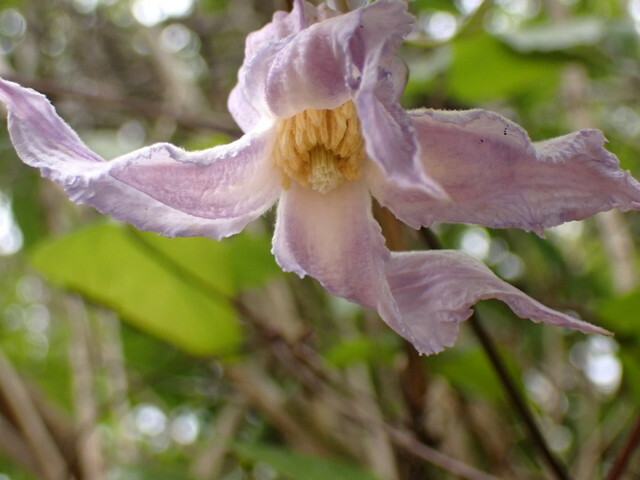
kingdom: Plantae
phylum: Tracheophyta
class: Magnoliopsida
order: Ranunculales
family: Ranunculaceae
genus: Clematis
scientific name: Clematis crispa
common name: Curly clematis
